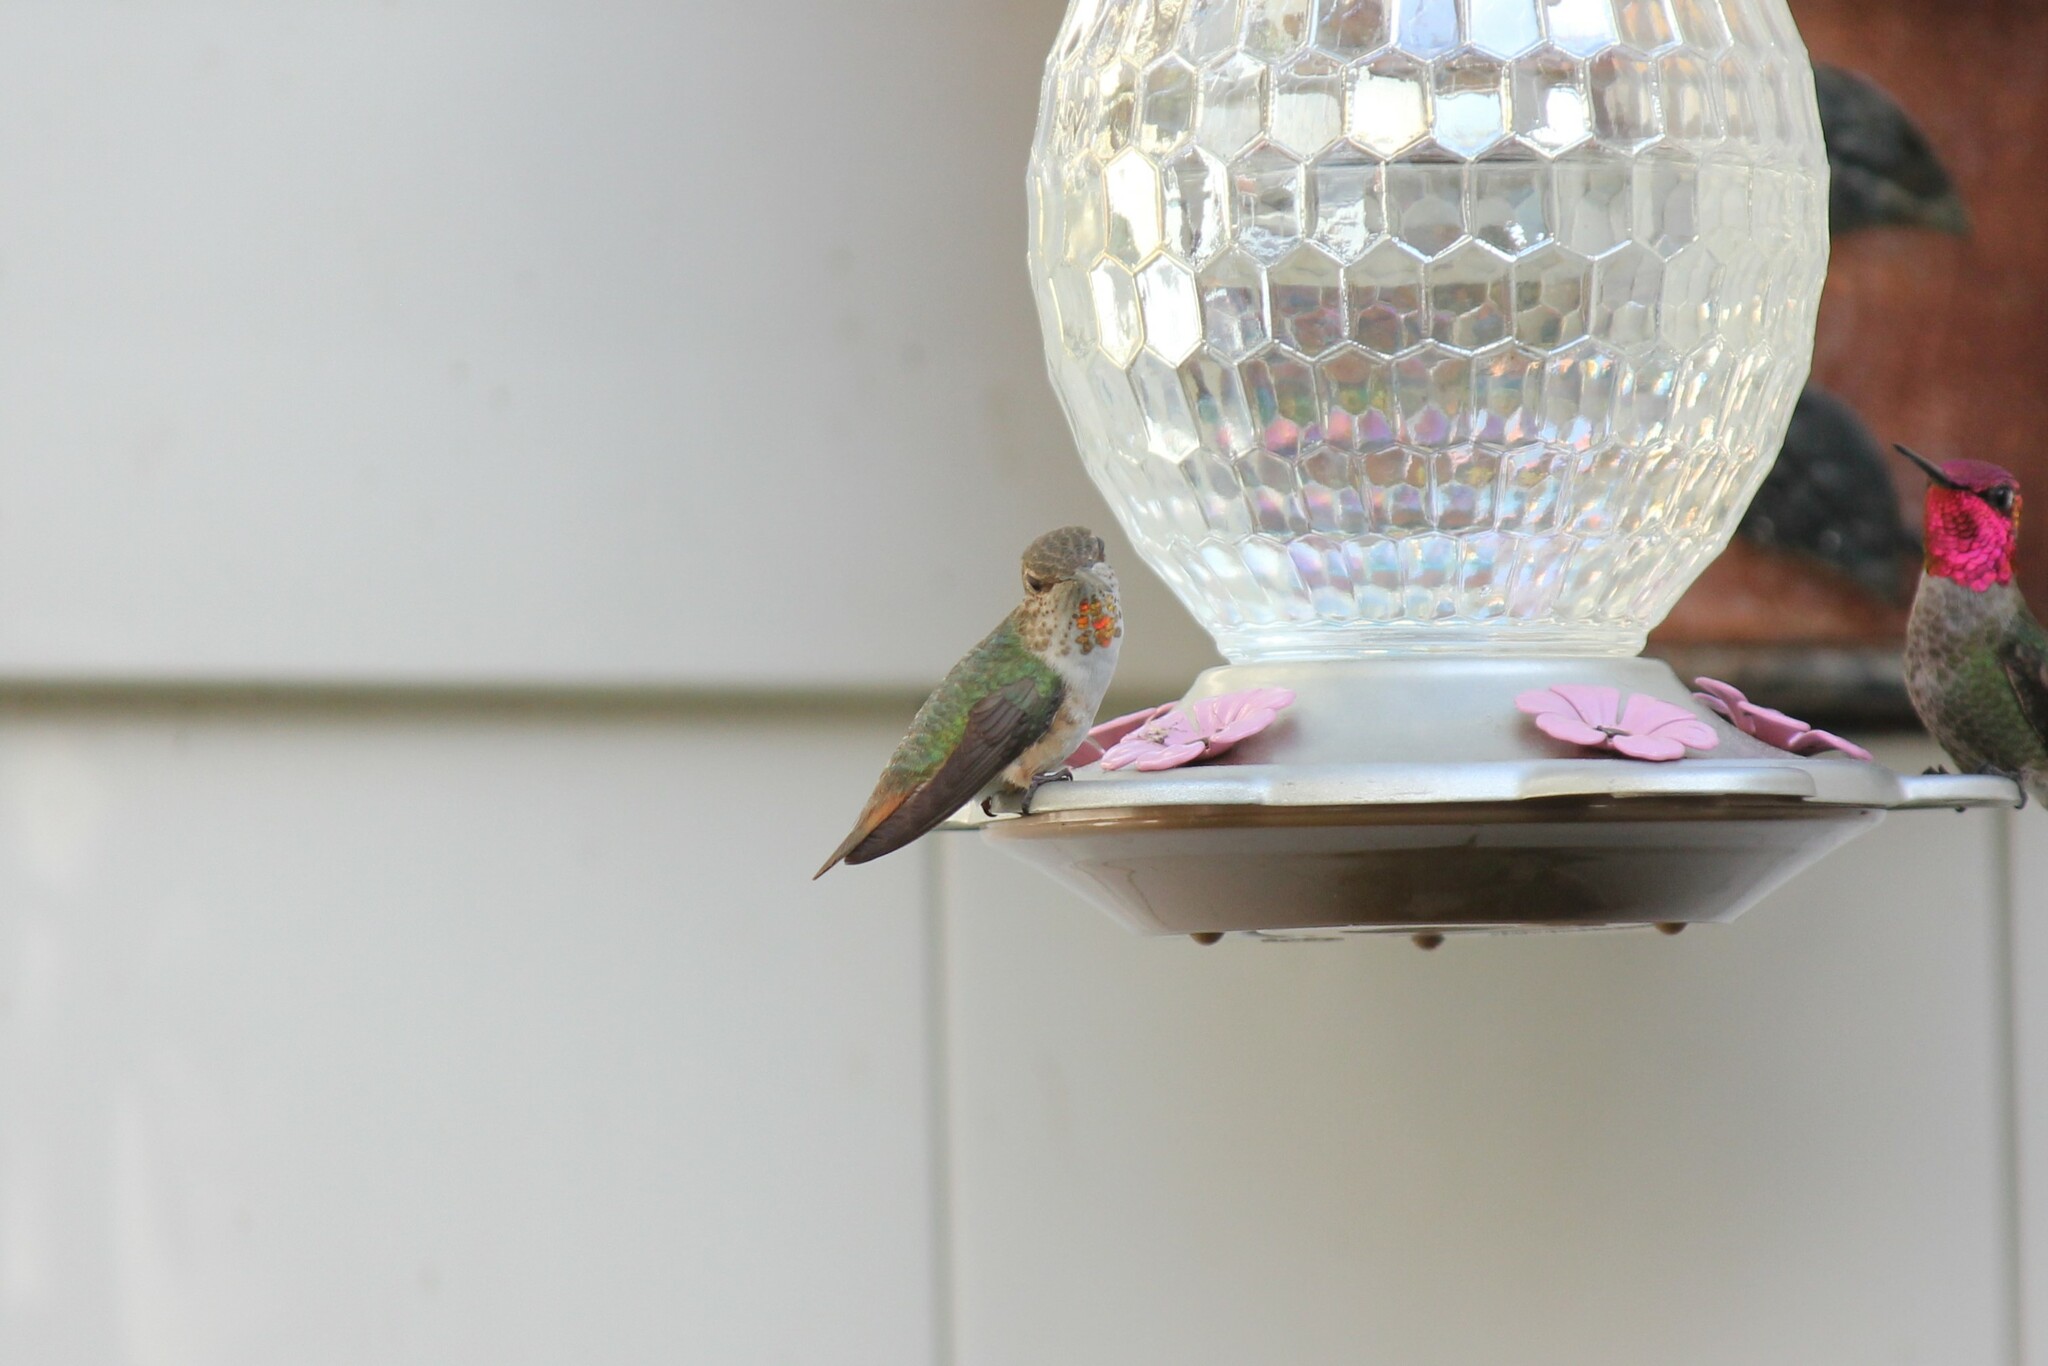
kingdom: Animalia
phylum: Chordata
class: Aves
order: Apodiformes
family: Trochilidae
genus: Selasphorus
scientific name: Selasphorus
